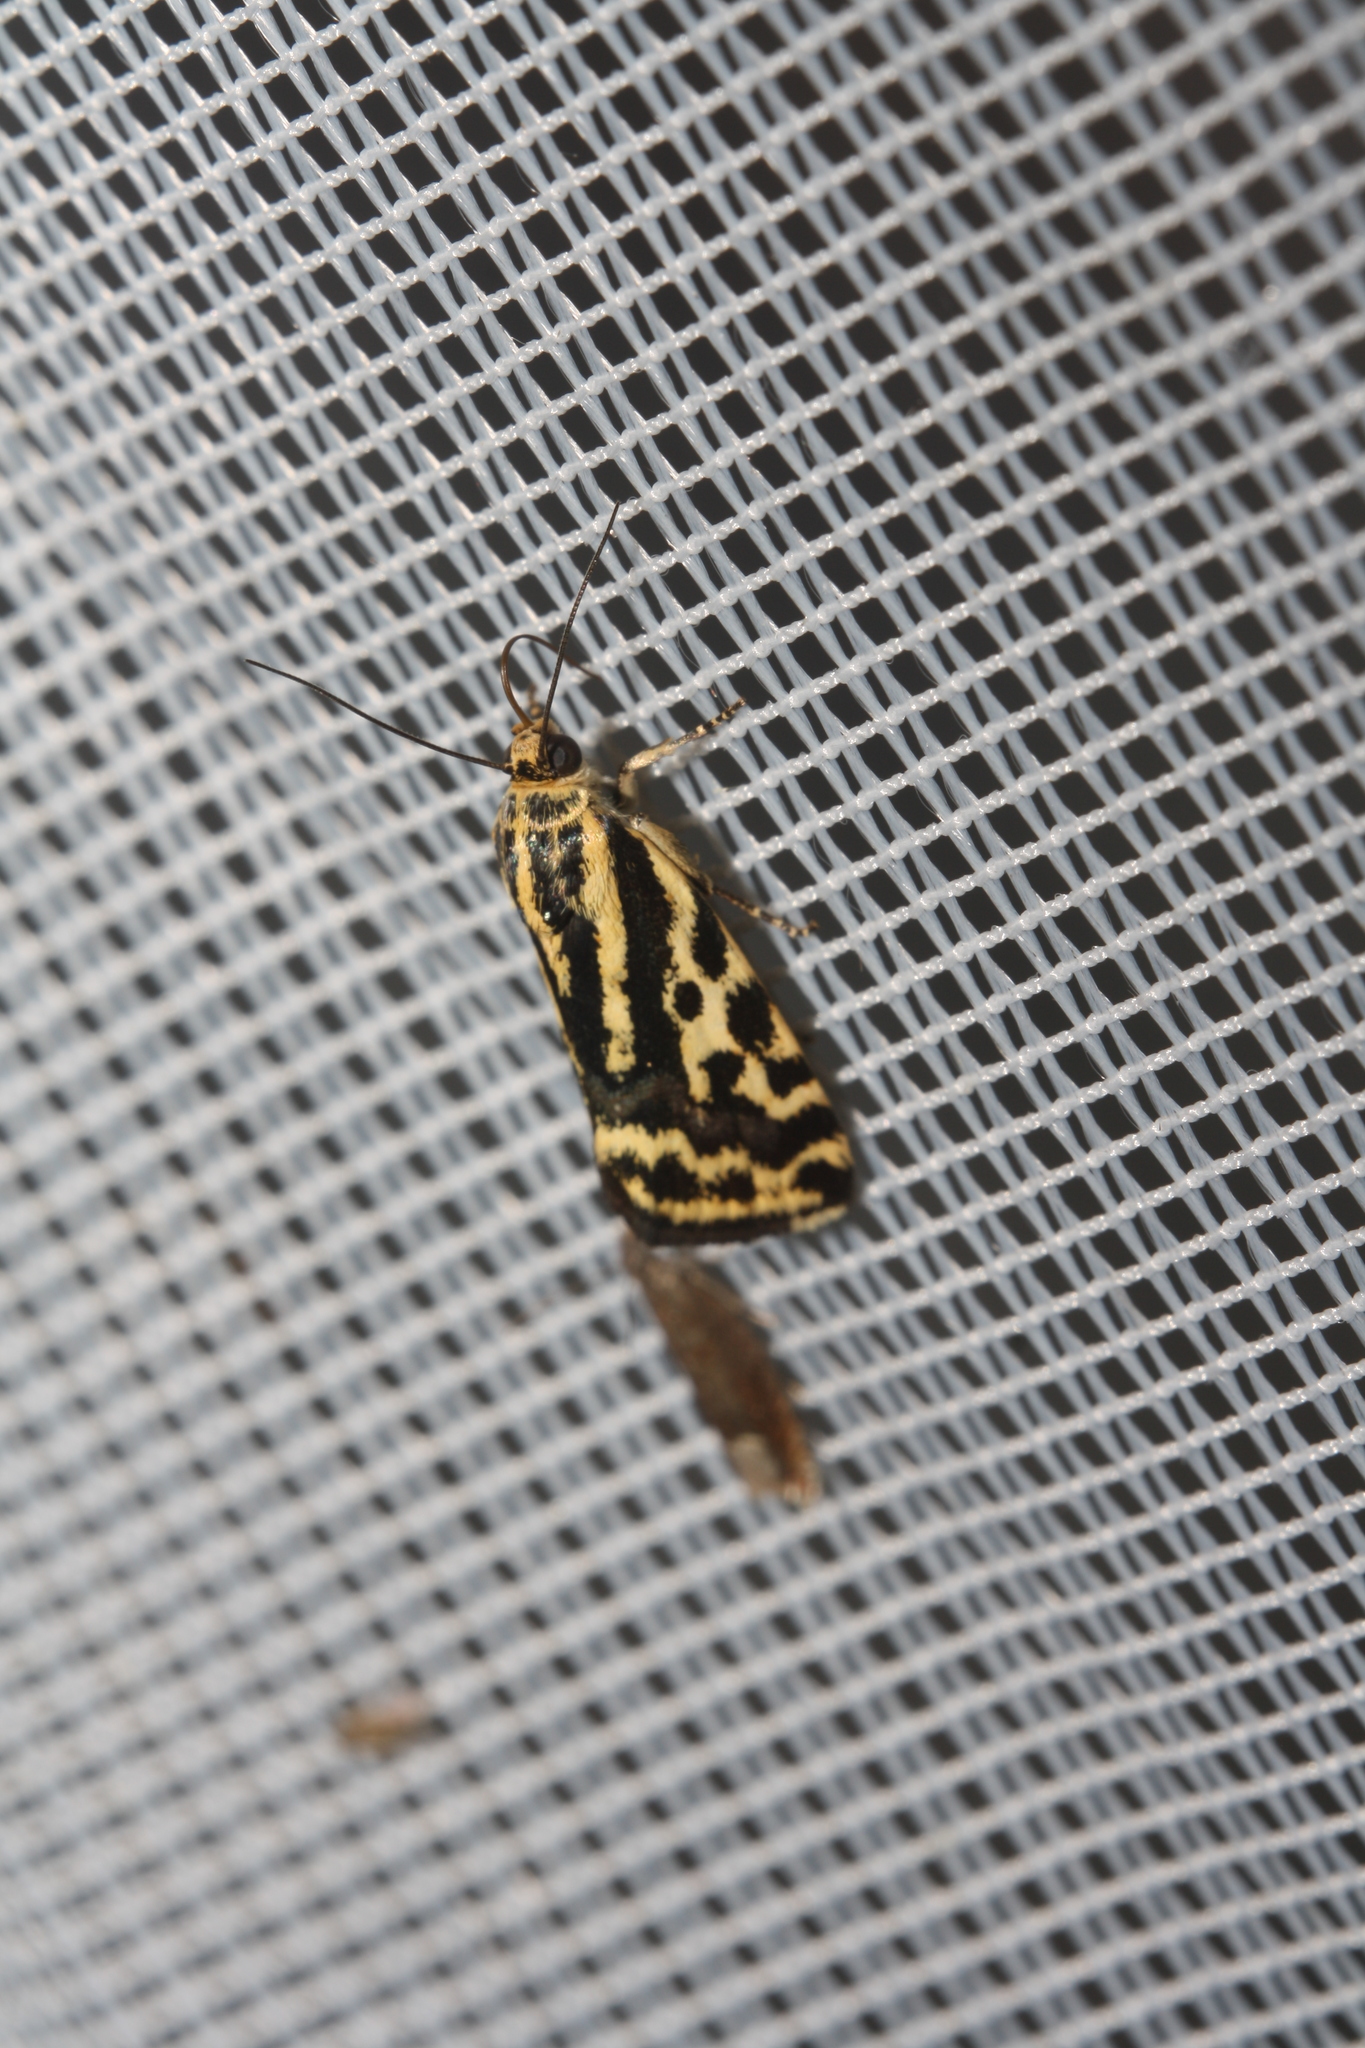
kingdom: Animalia
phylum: Arthropoda
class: Insecta
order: Lepidoptera
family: Noctuidae
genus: Acontia
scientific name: Acontia trabealis
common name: Spotted sulphur
